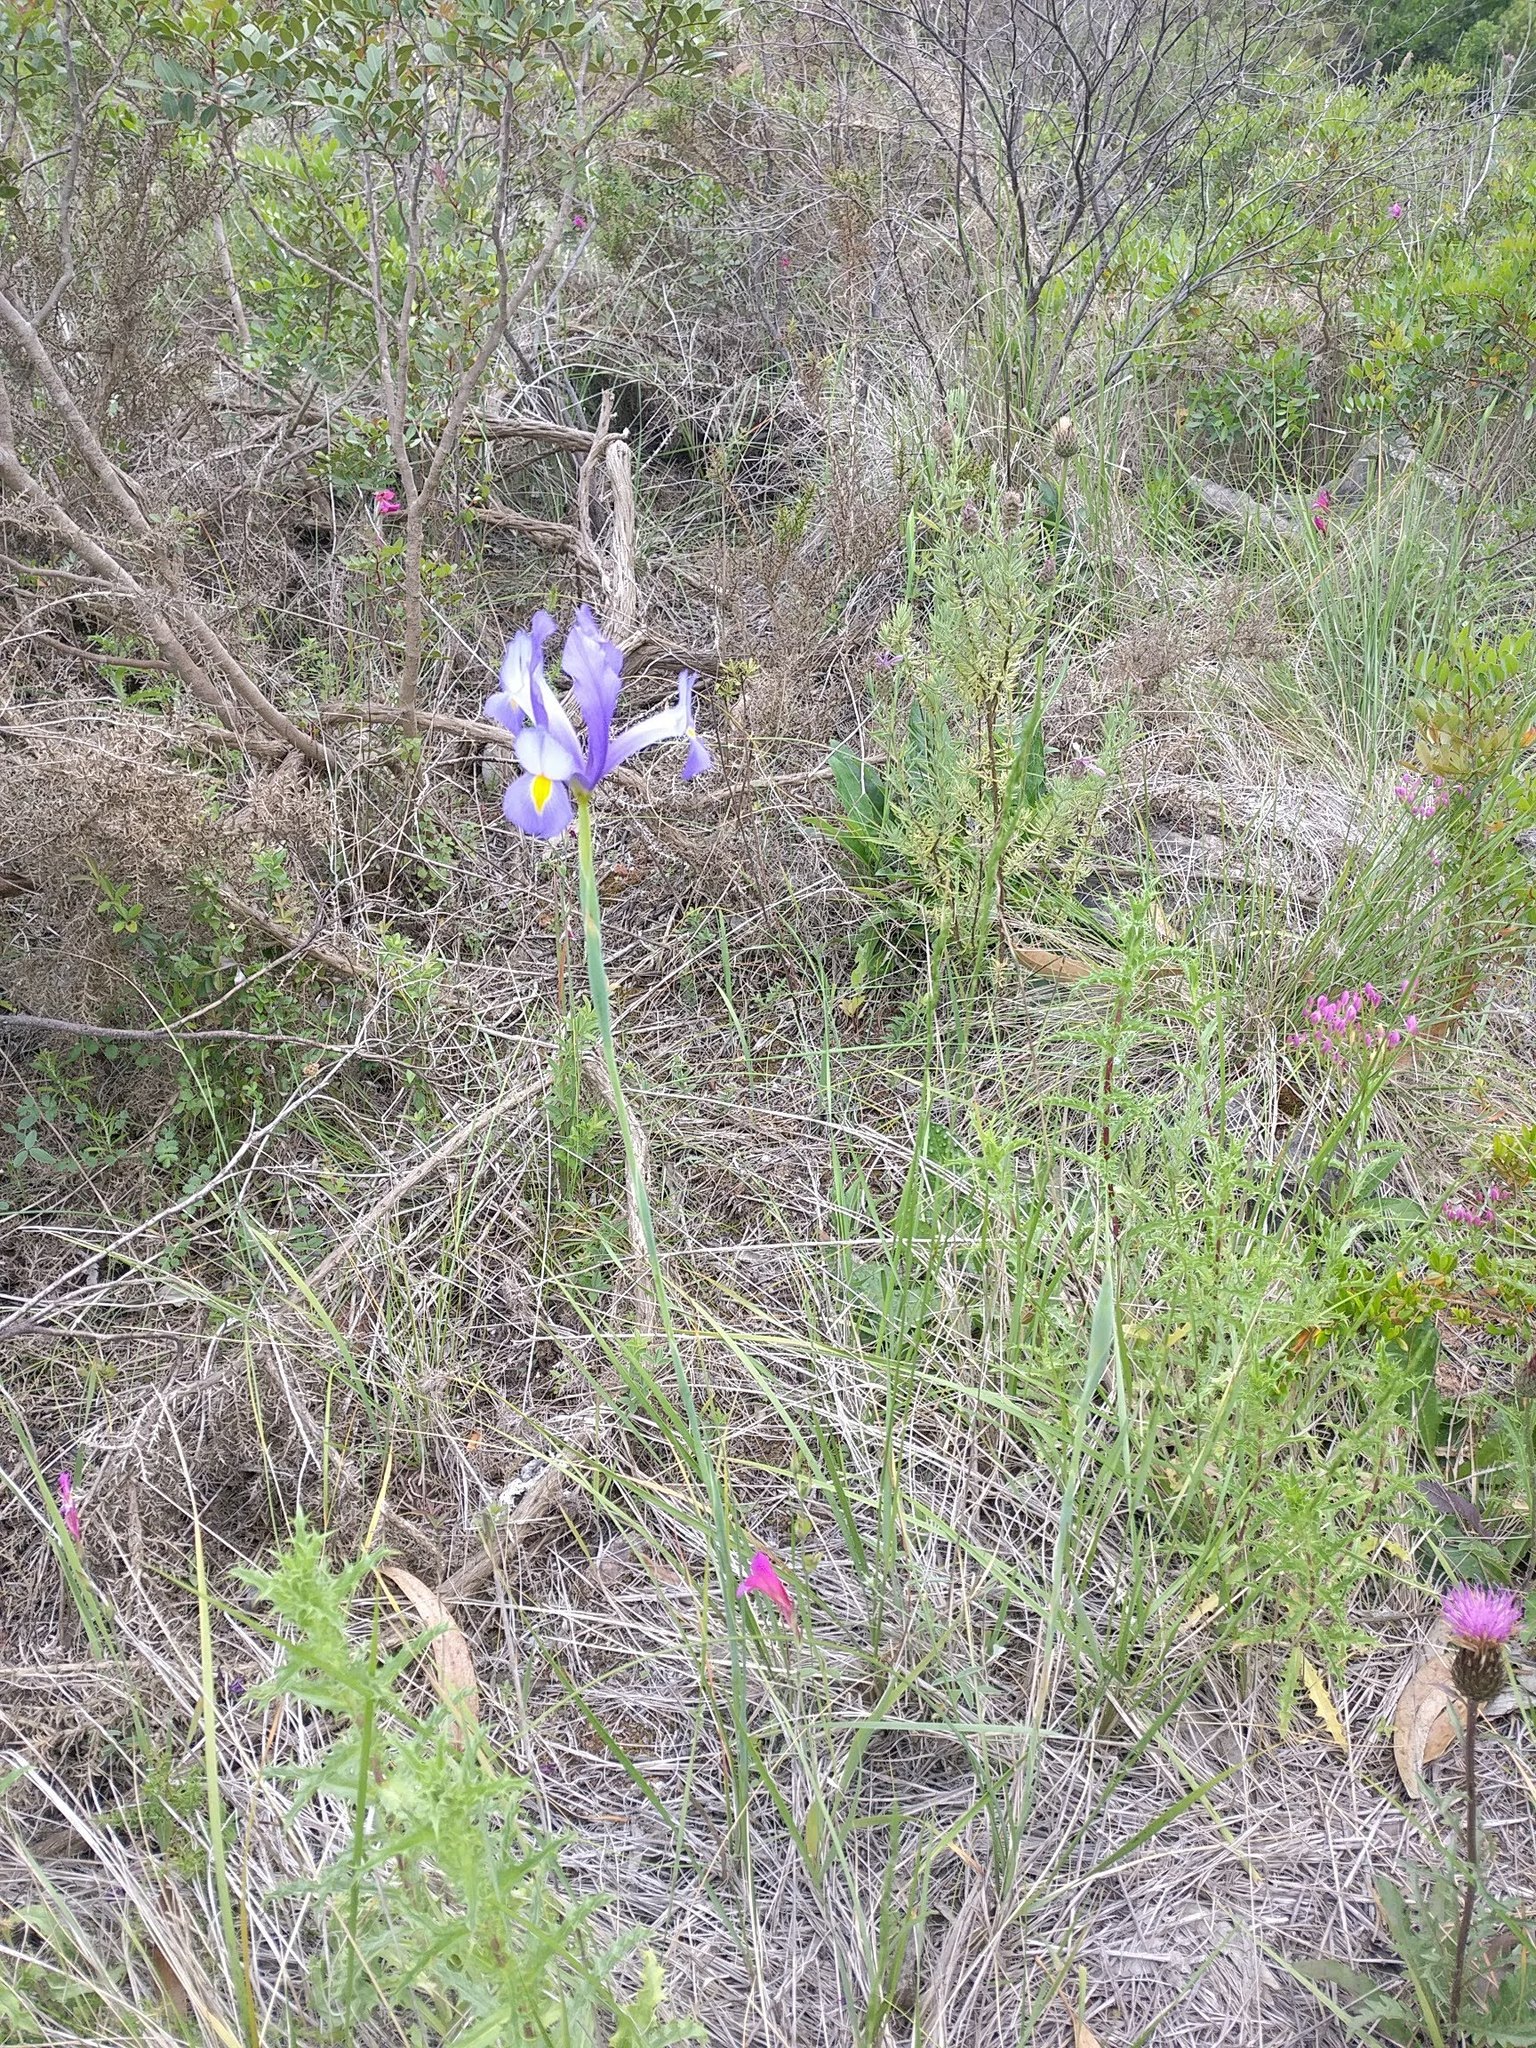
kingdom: Plantae
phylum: Tracheophyta
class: Liliopsida
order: Asparagales
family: Iridaceae
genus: Iris
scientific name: Iris xiphium
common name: Spanish iris
